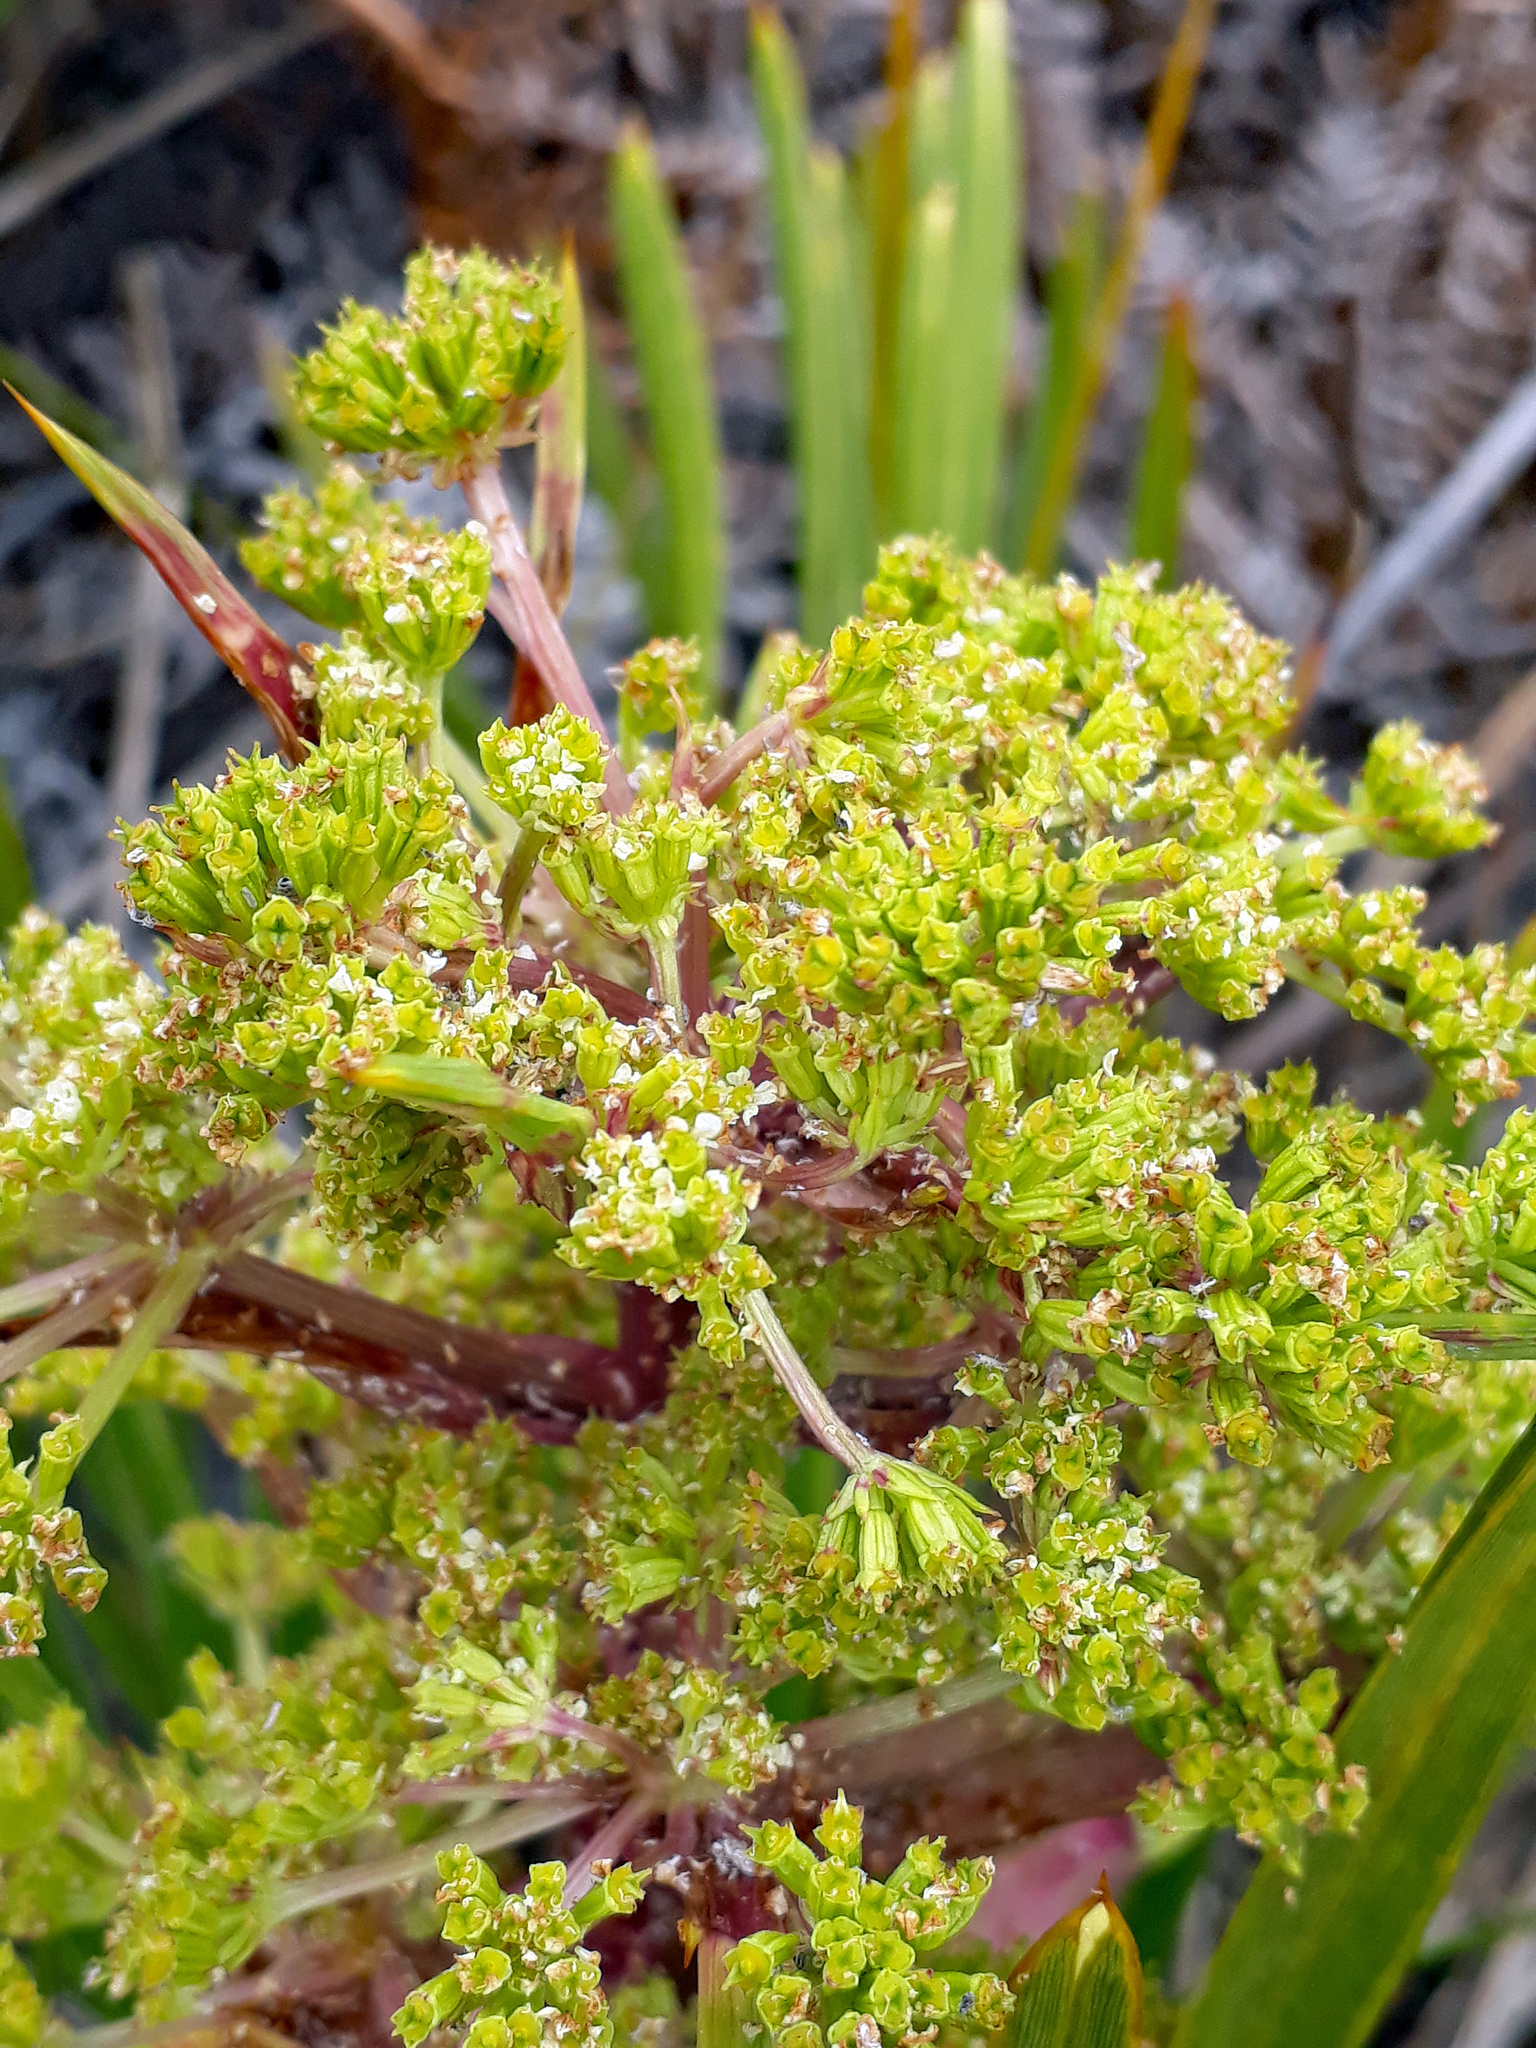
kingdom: Plantae
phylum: Tracheophyta
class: Magnoliopsida
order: Apiales
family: Apiaceae
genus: Aciphylla
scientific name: Aciphylla traversii
